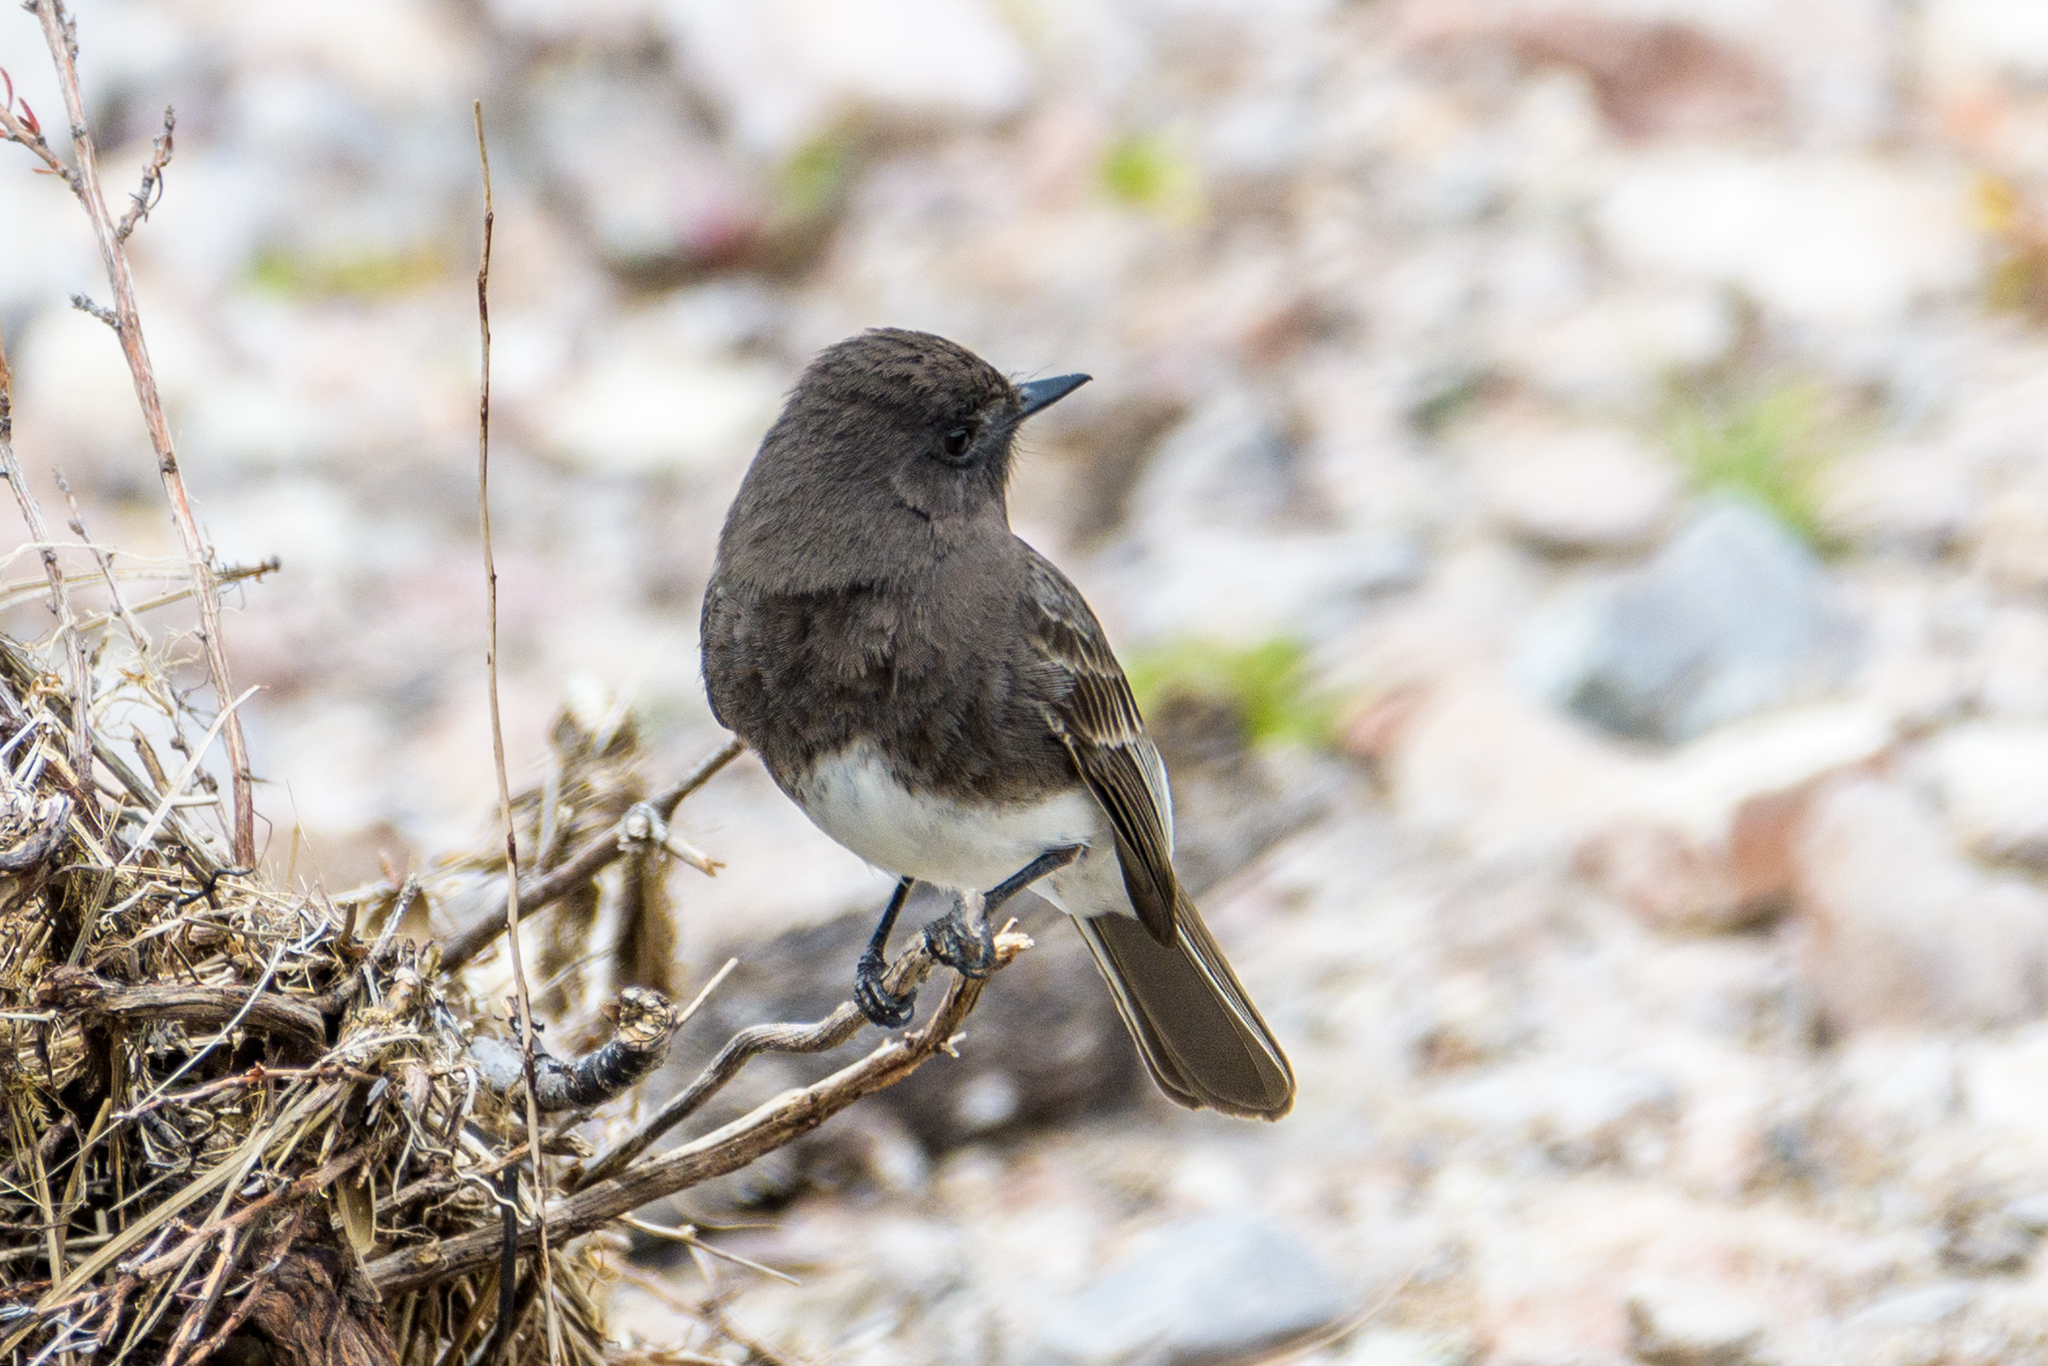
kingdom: Animalia
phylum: Chordata
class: Aves
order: Passeriformes
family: Tyrannidae
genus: Sayornis
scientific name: Sayornis nigricans
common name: Black phoebe
